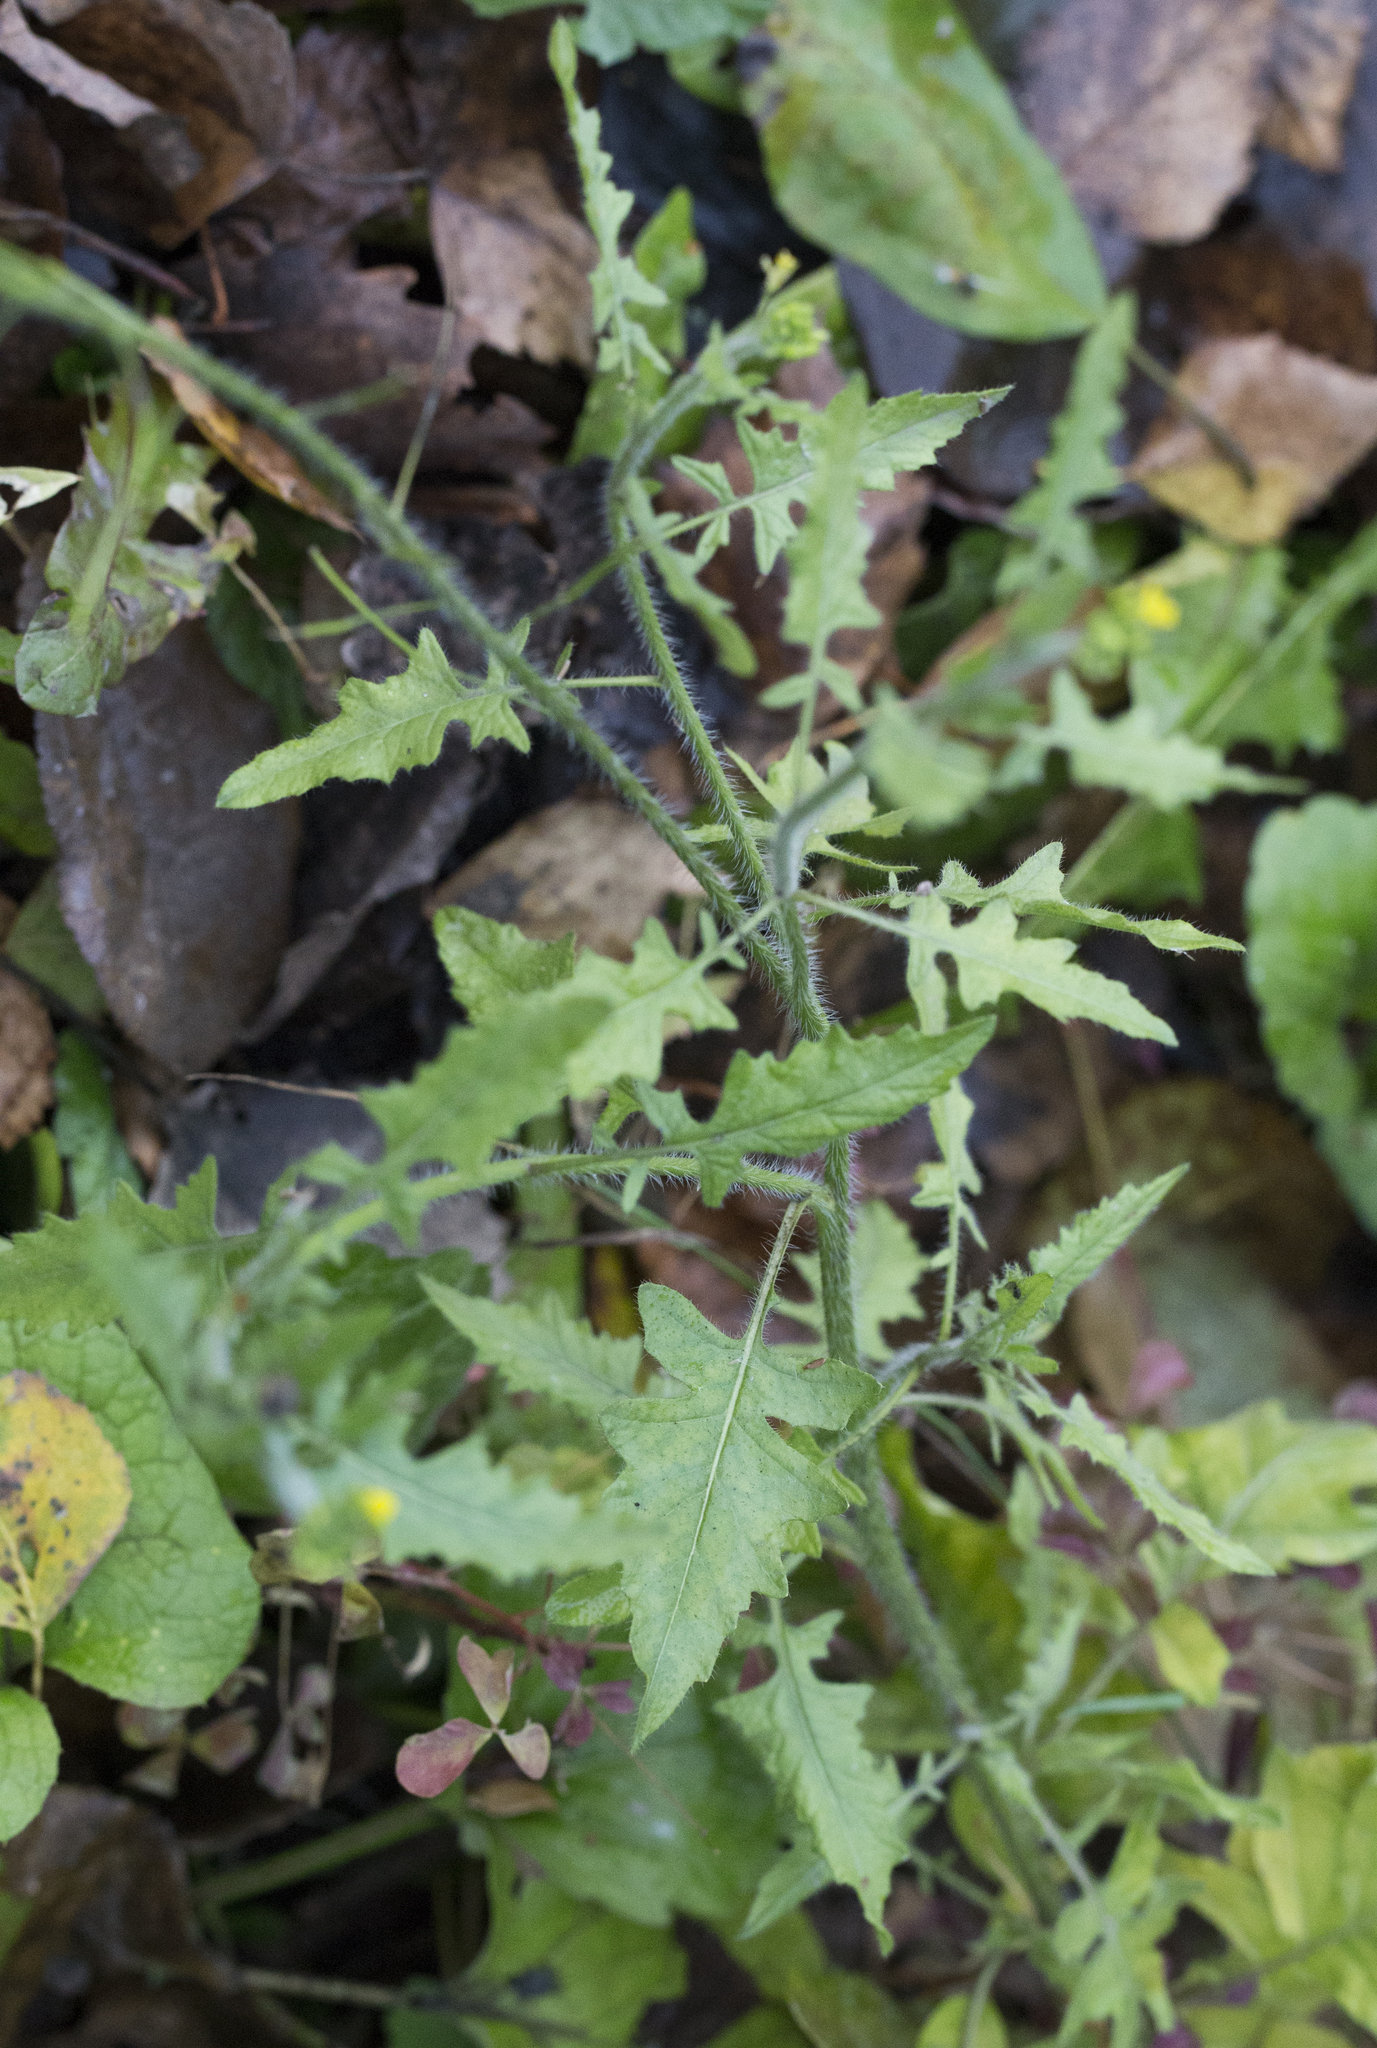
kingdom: Plantae
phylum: Tracheophyta
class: Magnoliopsida
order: Brassicales
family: Brassicaceae
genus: Sisymbrium
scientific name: Sisymbrium loeselii
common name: False london-rocket
